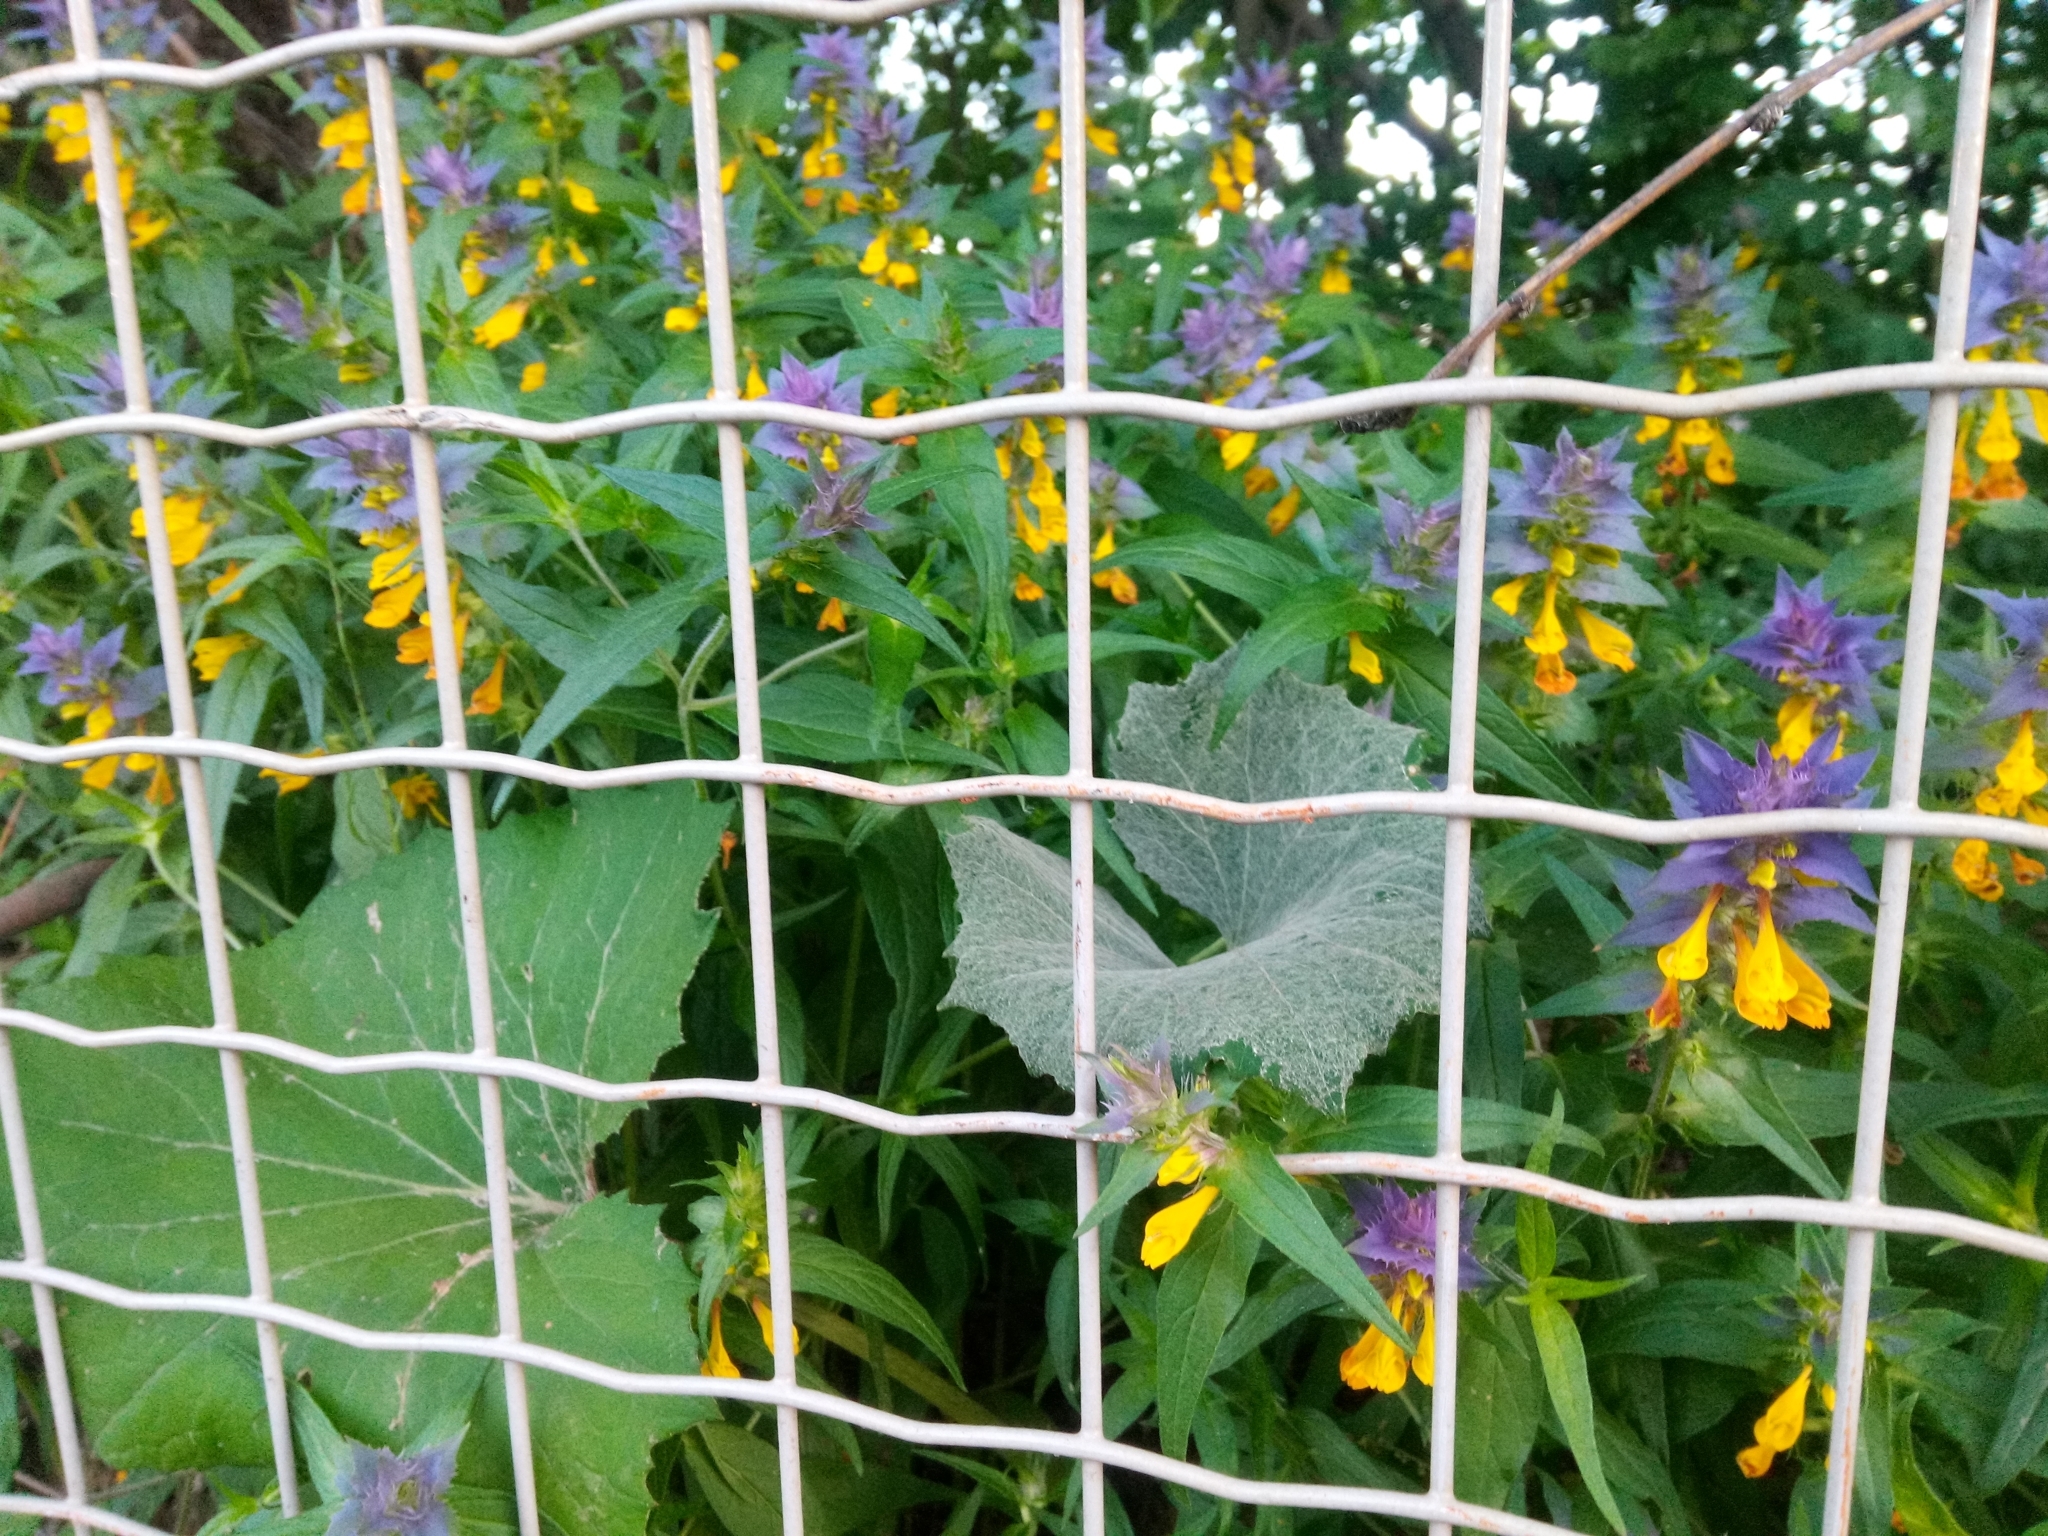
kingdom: Plantae
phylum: Tracheophyta
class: Magnoliopsida
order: Lamiales
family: Orobanchaceae
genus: Melampyrum
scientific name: Melampyrum nemorosum
